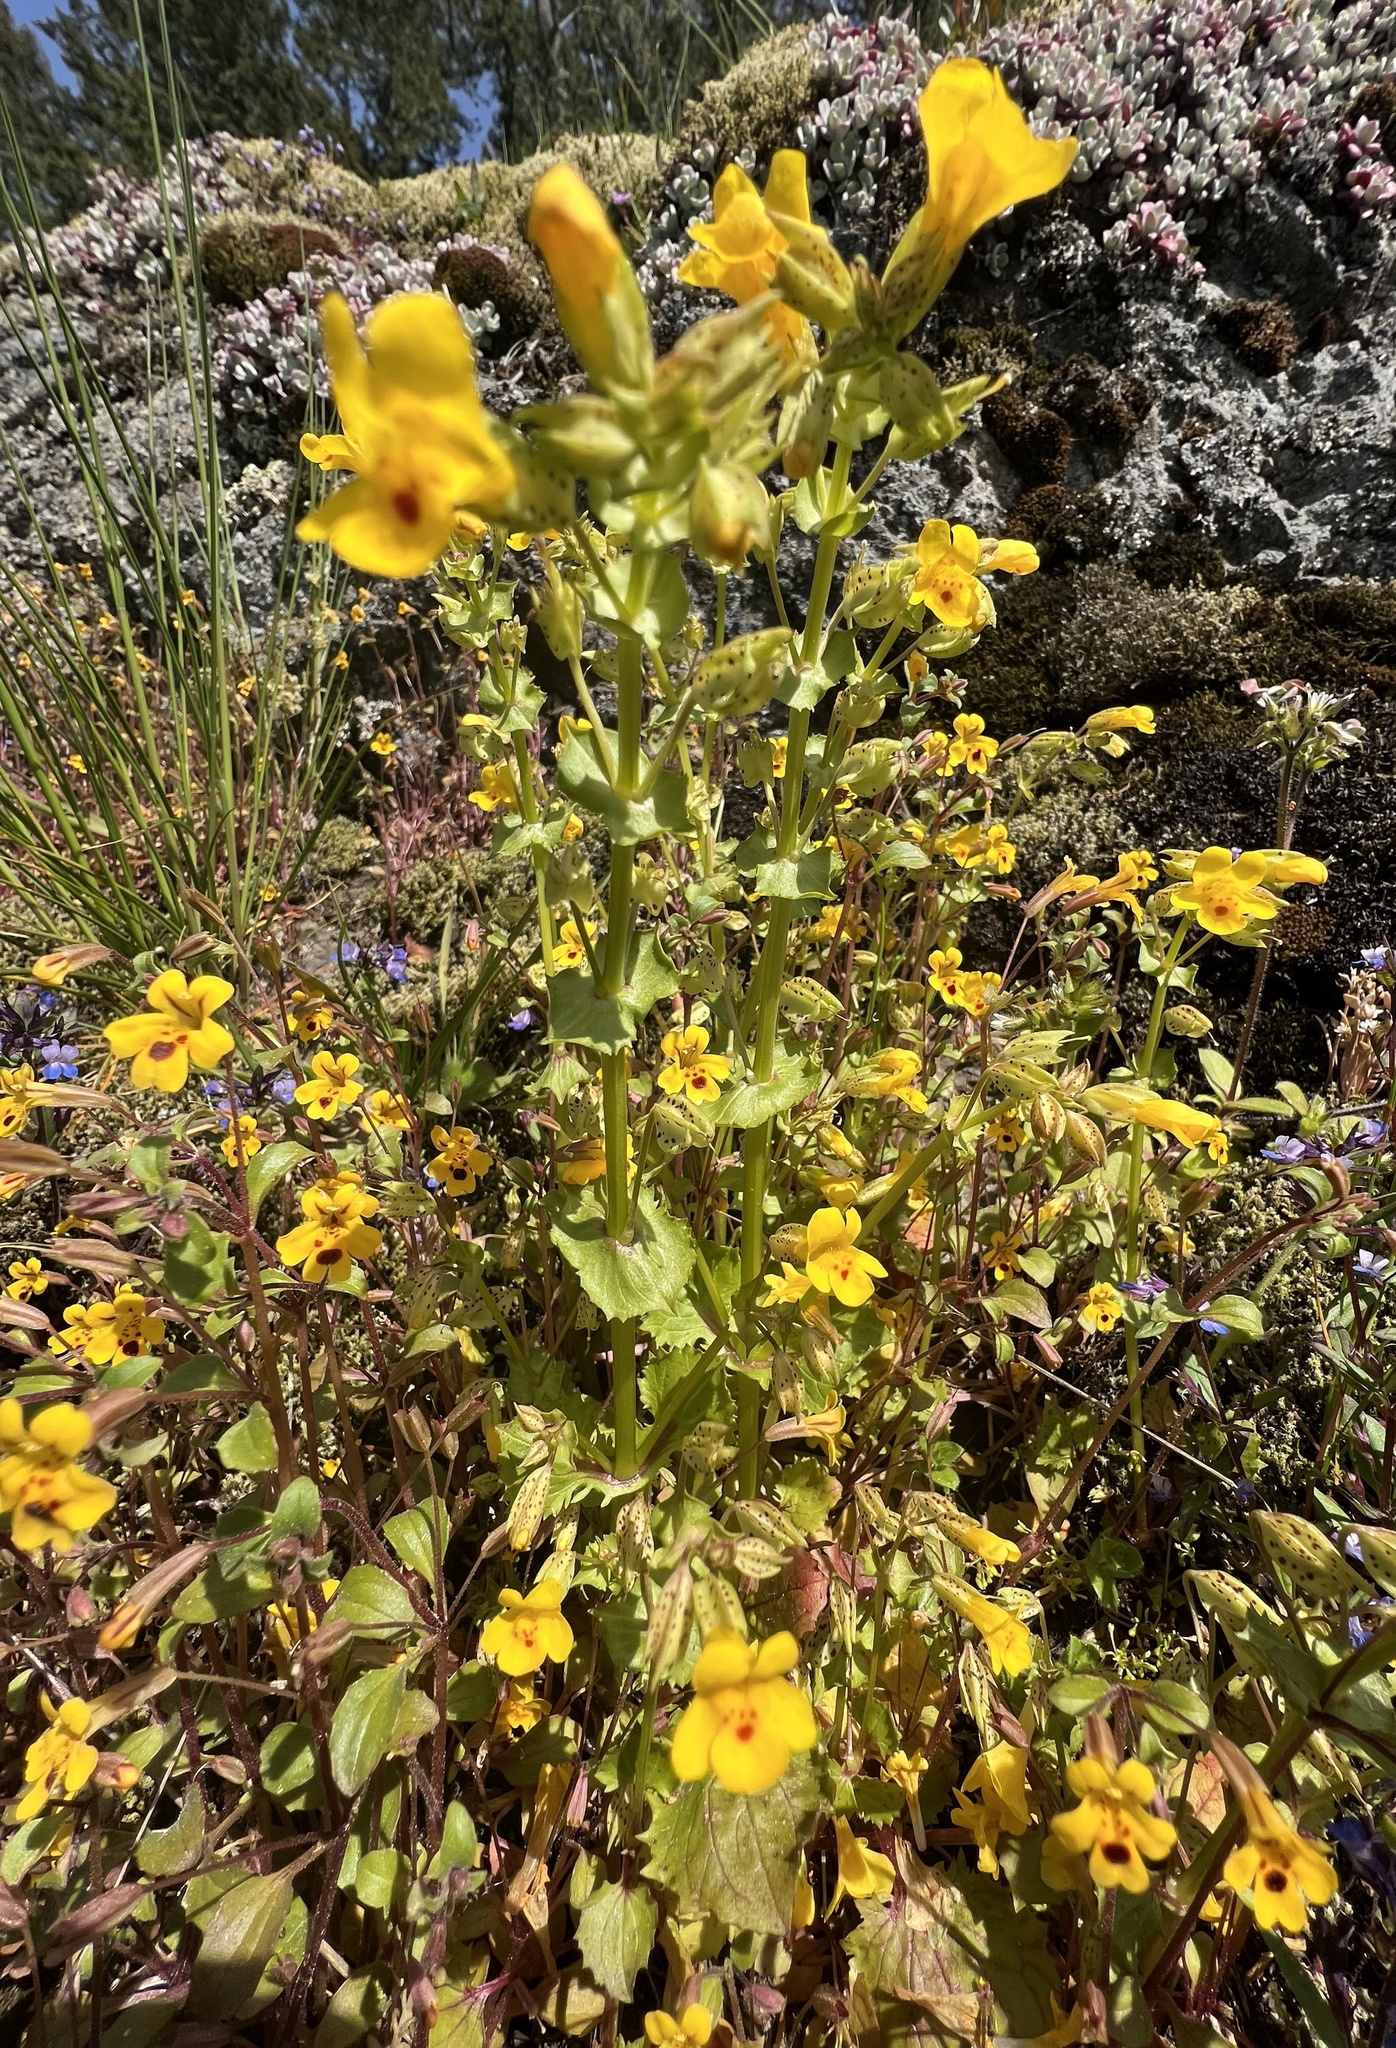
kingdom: Plantae
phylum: Tracheophyta
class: Magnoliopsida
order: Lamiales
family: Phrymaceae
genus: Erythranthe
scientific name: Erythranthe alsinoides
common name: Chickweed monkeyflower
